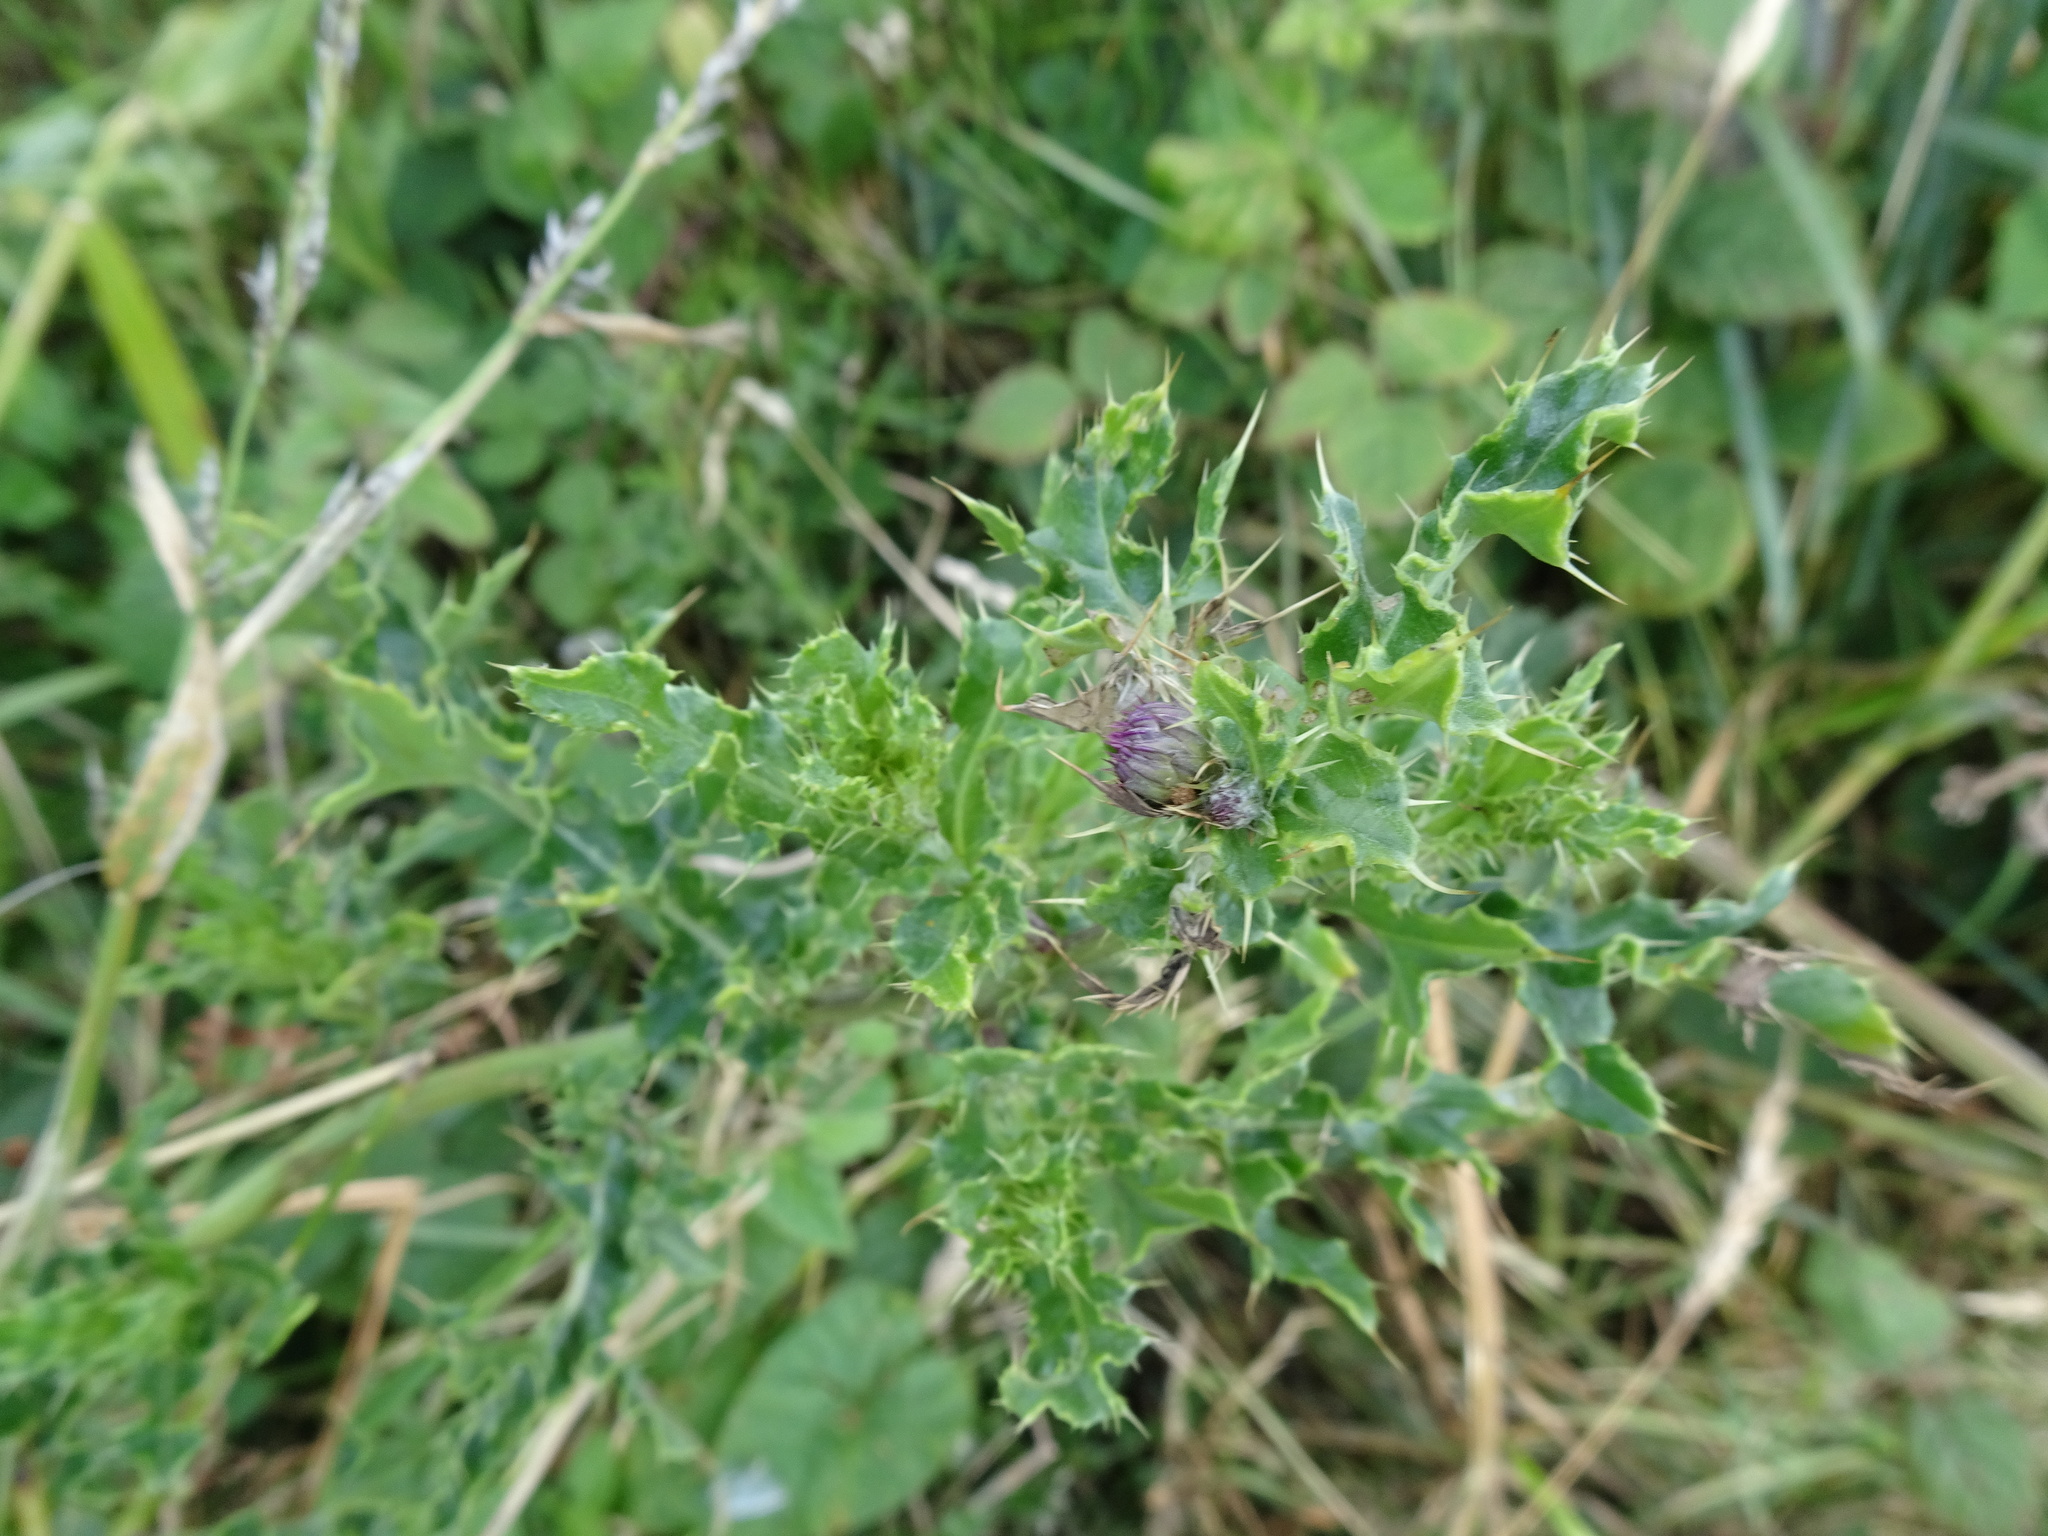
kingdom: Plantae
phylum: Tracheophyta
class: Magnoliopsida
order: Asterales
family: Asteraceae
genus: Cirsium
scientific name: Cirsium arvense
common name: Creeping thistle
